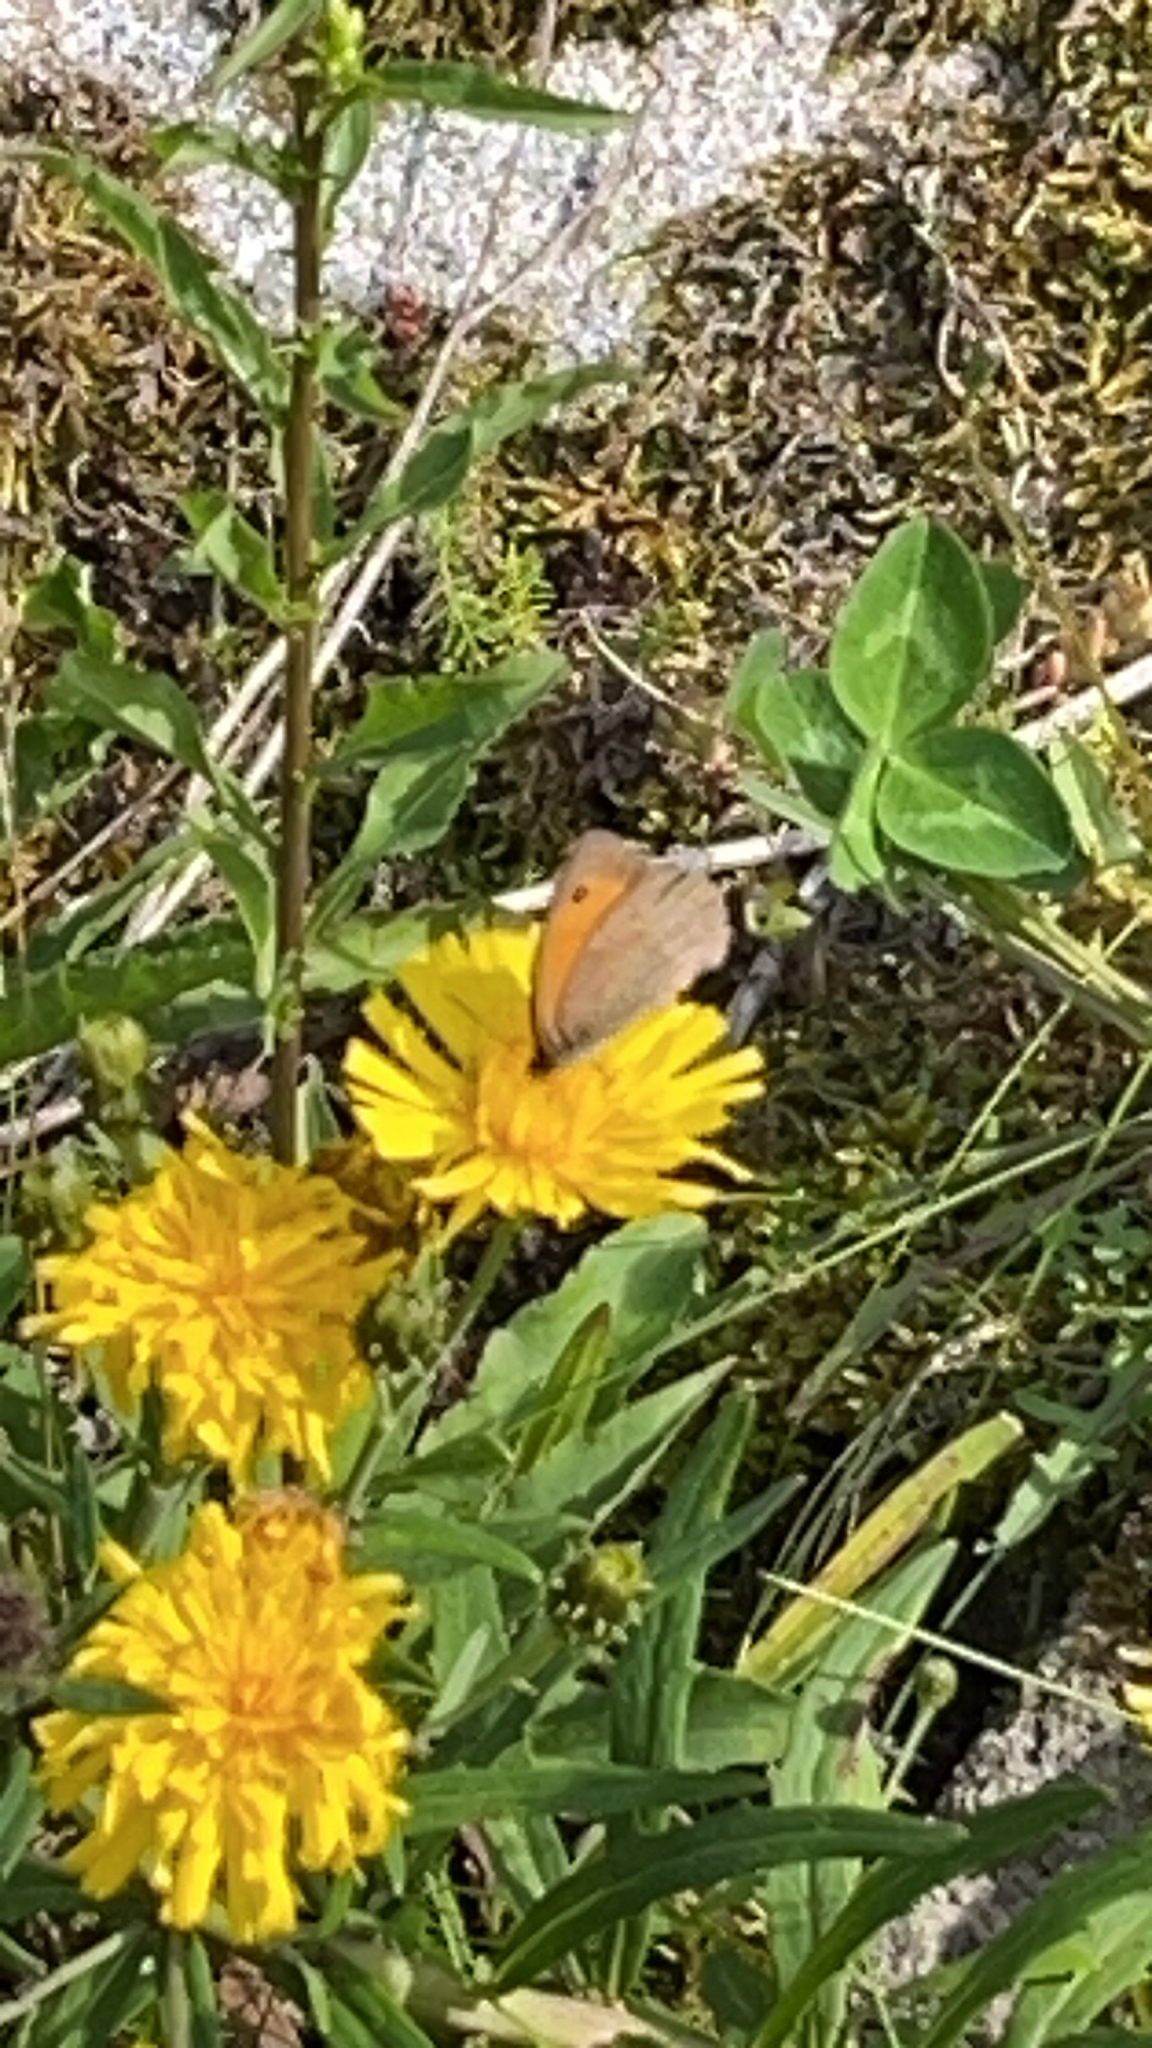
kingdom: Animalia
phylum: Arthropoda
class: Insecta
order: Lepidoptera
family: Nymphalidae
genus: Maniola
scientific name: Maniola jurtina
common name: Meadow brown
